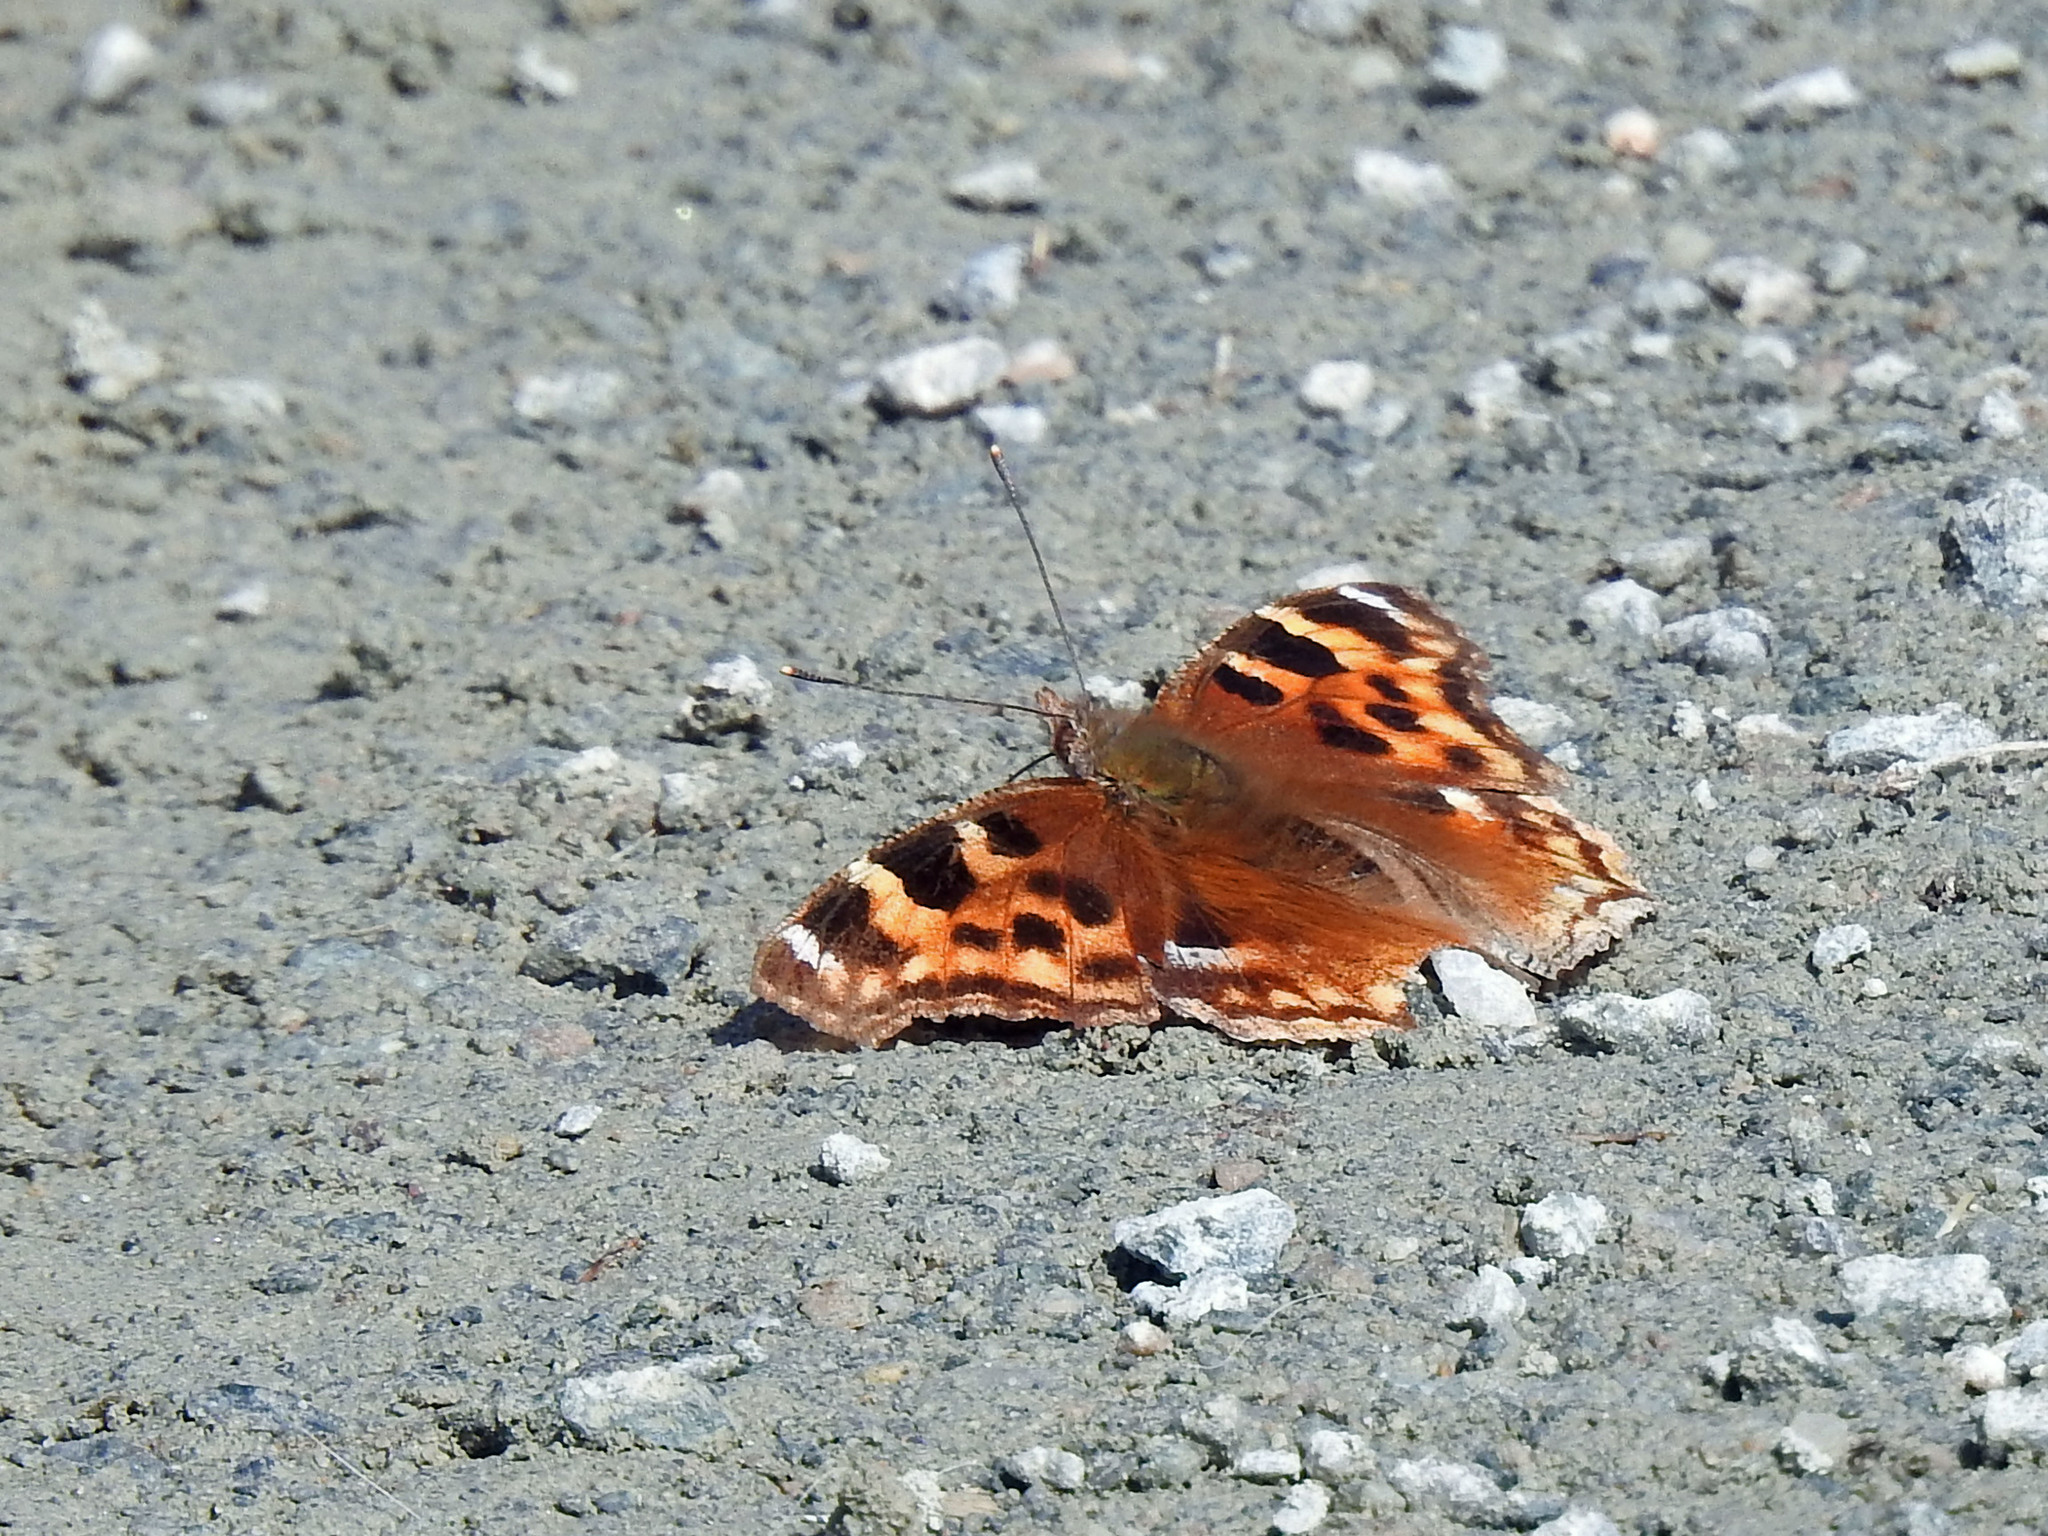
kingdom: Animalia
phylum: Arthropoda
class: Insecta
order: Lepidoptera
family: Nymphalidae
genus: Polygonia
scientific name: Polygonia vaualbum
